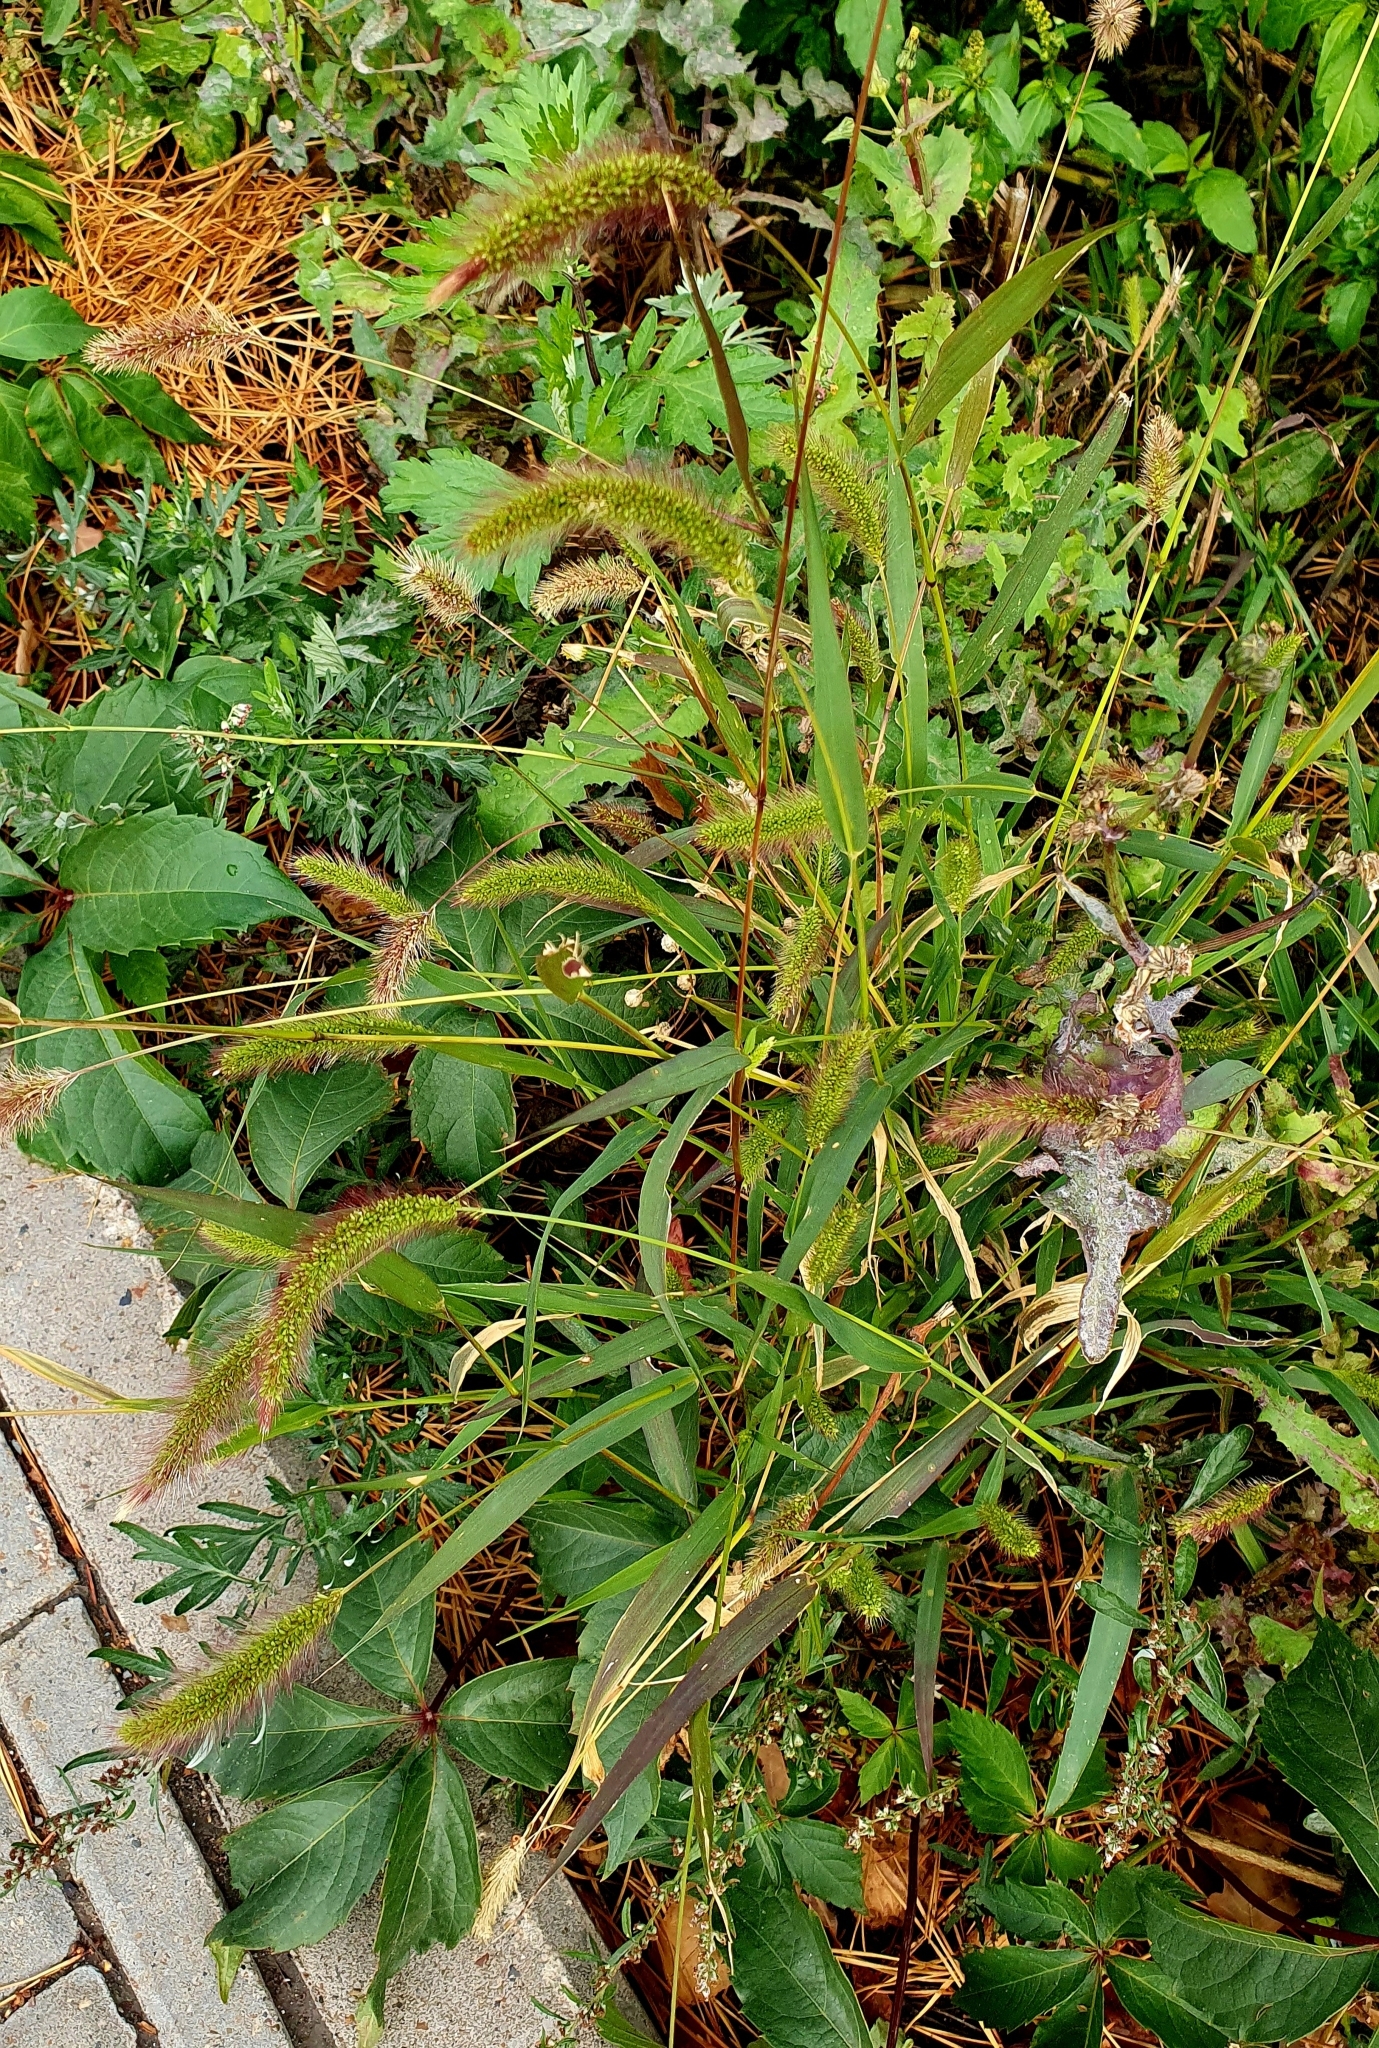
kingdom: Plantae
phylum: Tracheophyta
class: Liliopsida
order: Poales
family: Poaceae
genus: Setaria
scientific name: Setaria viridis
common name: Green bristlegrass
